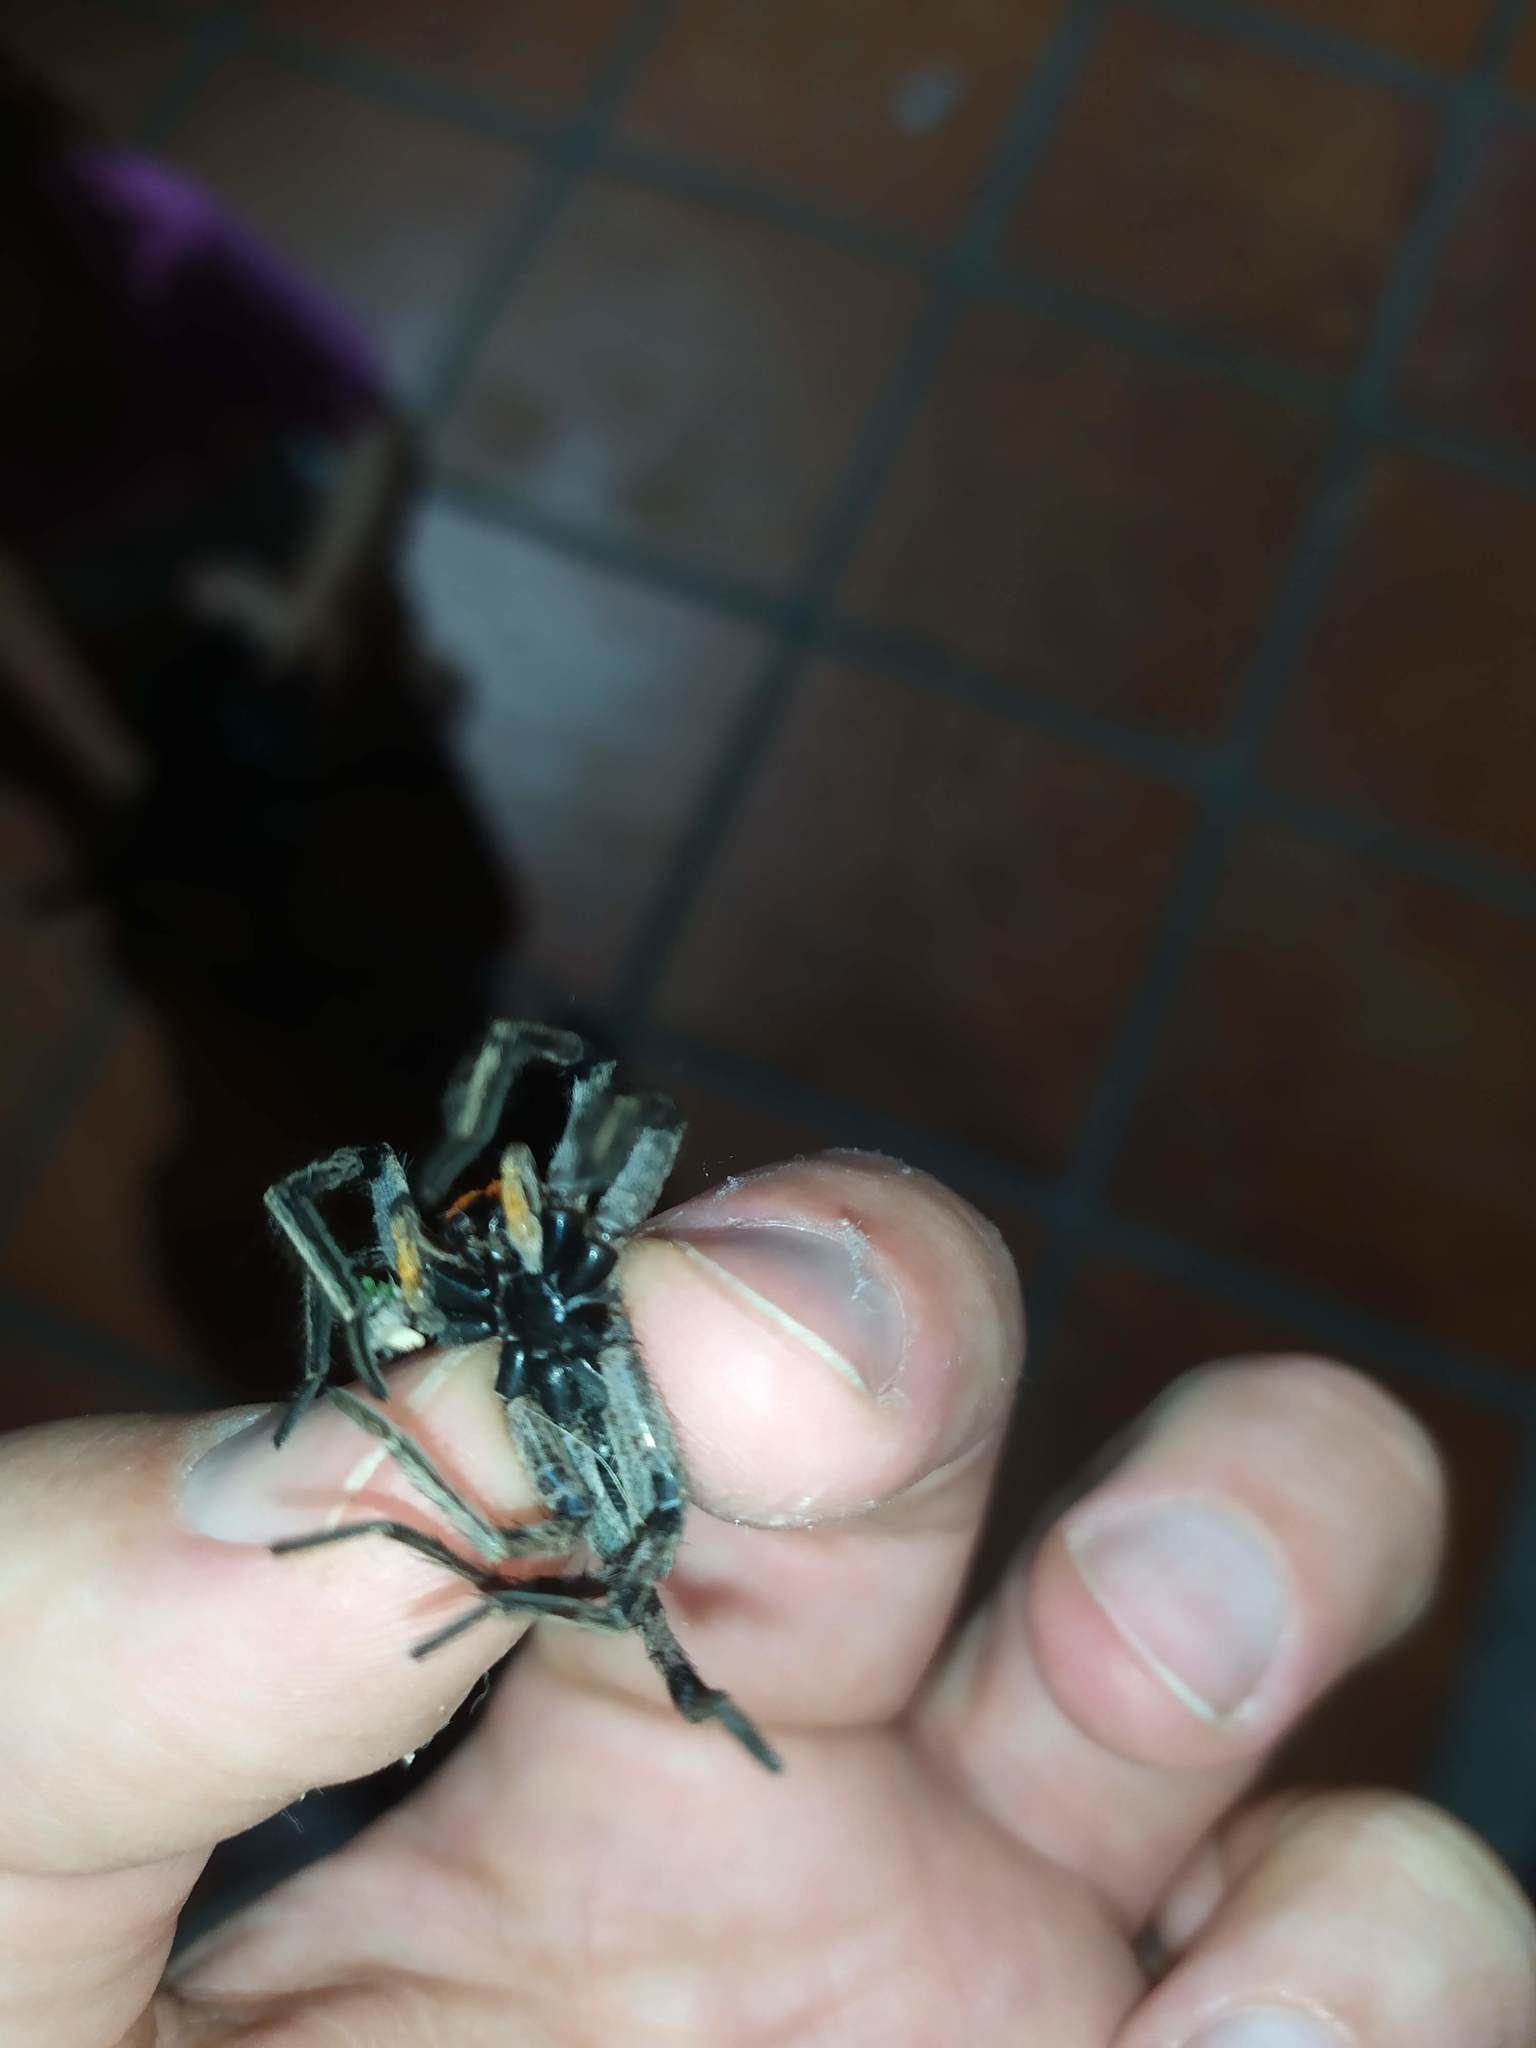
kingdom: Animalia
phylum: Arthropoda
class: Arachnida
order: Araneae
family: Lycosidae
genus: Lycosa
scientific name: Lycosa erythrognatha
